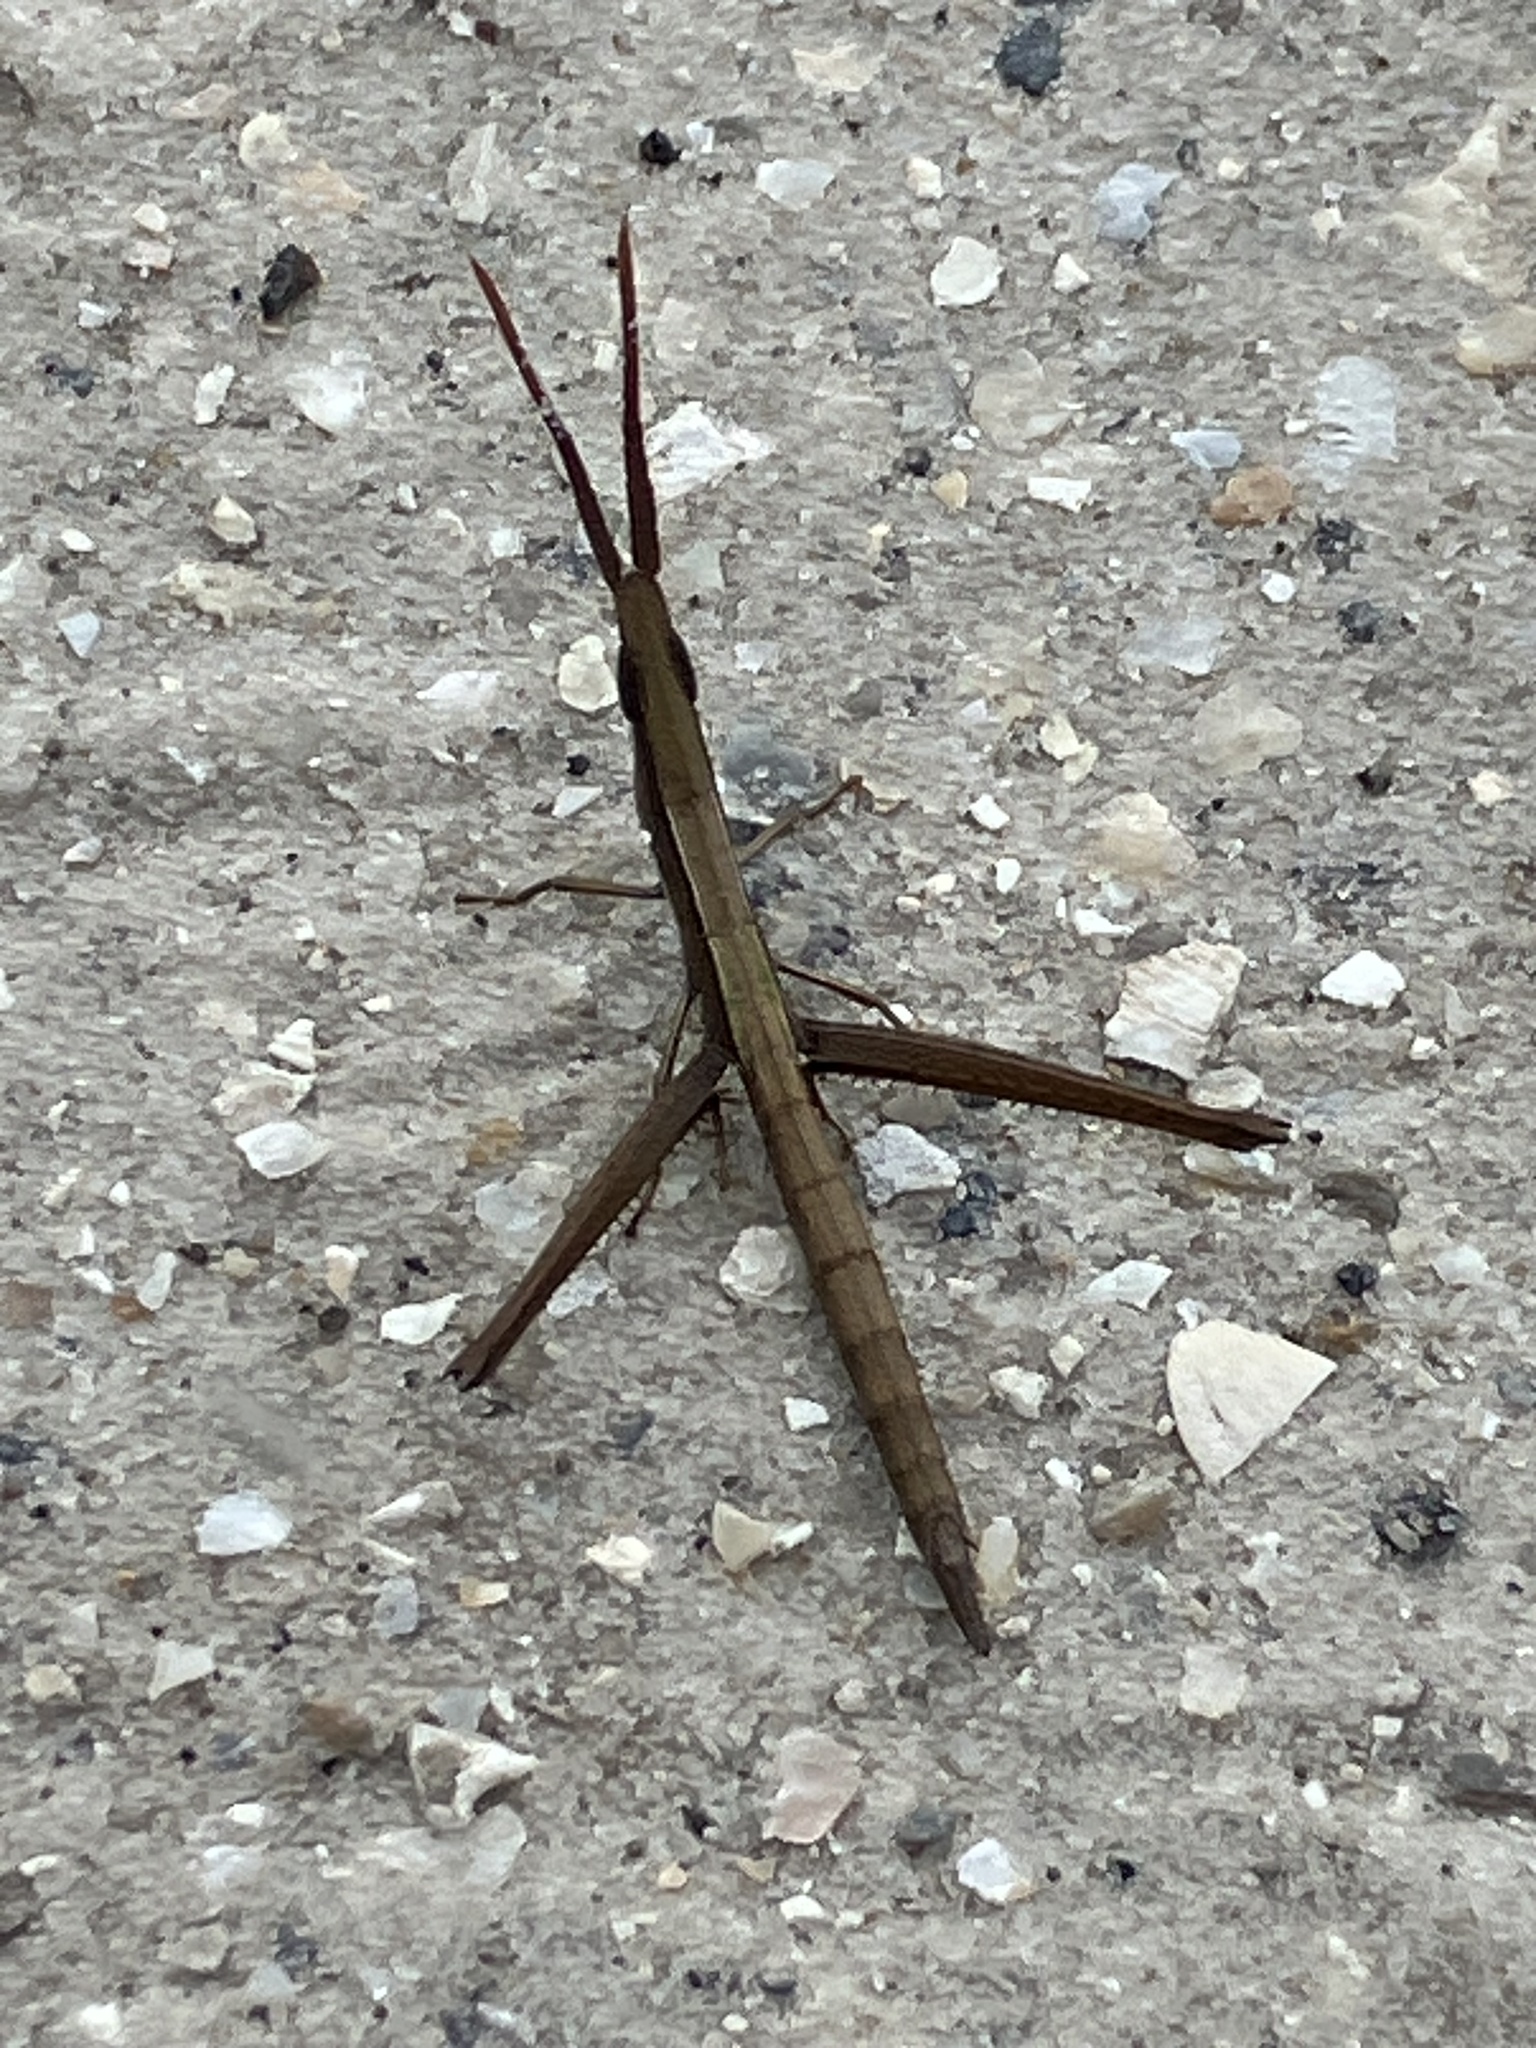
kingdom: Animalia
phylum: Arthropoda
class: Insecta
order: Orthoptera
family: Acrididae
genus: Achurum
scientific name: Achurum carinatum
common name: Long-headed toothpick grasshopper
